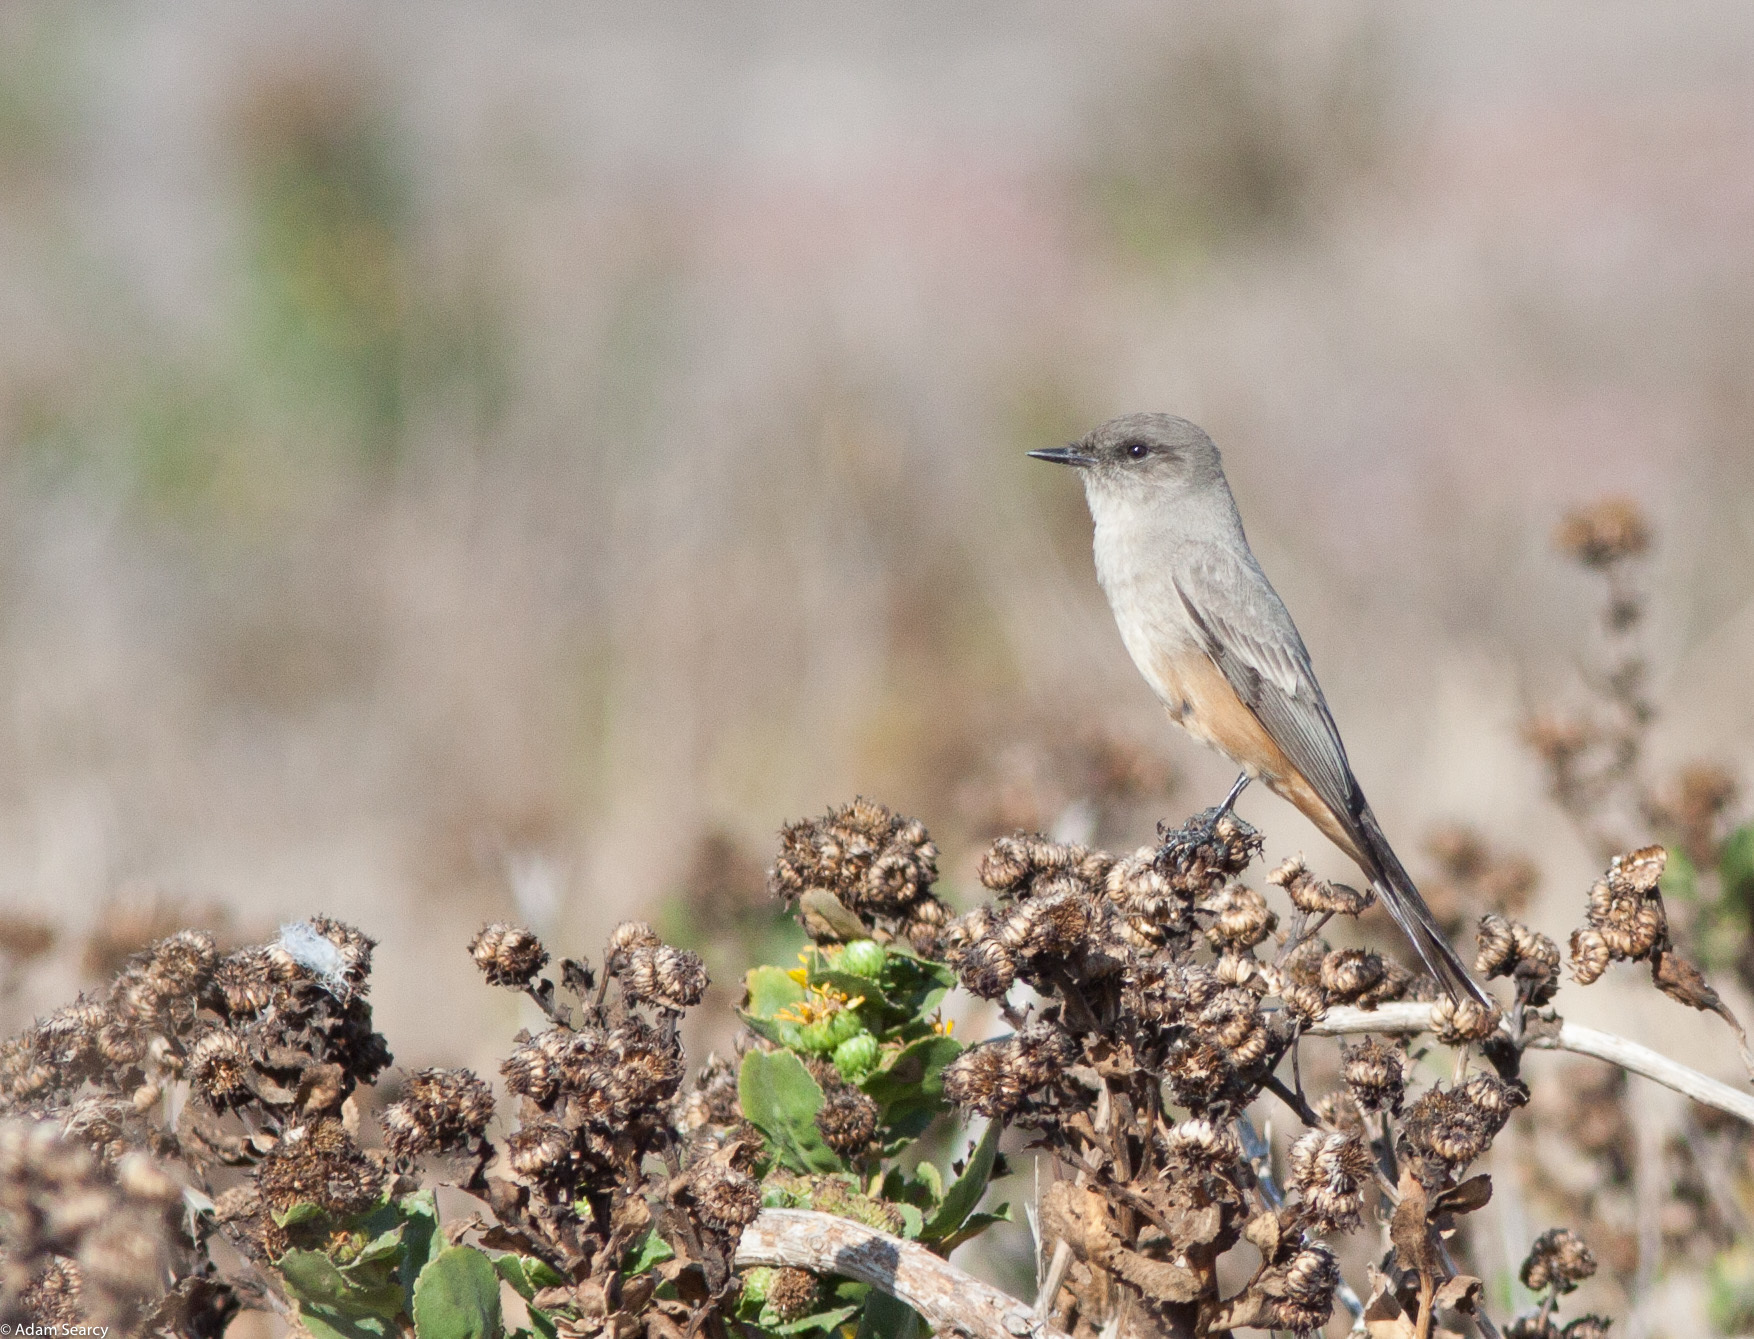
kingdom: Animalia
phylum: Chordata
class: Aves
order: Passeriformes
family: Tyrannidae
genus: Sayornis
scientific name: Sayornis saya
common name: Say's phoebe
